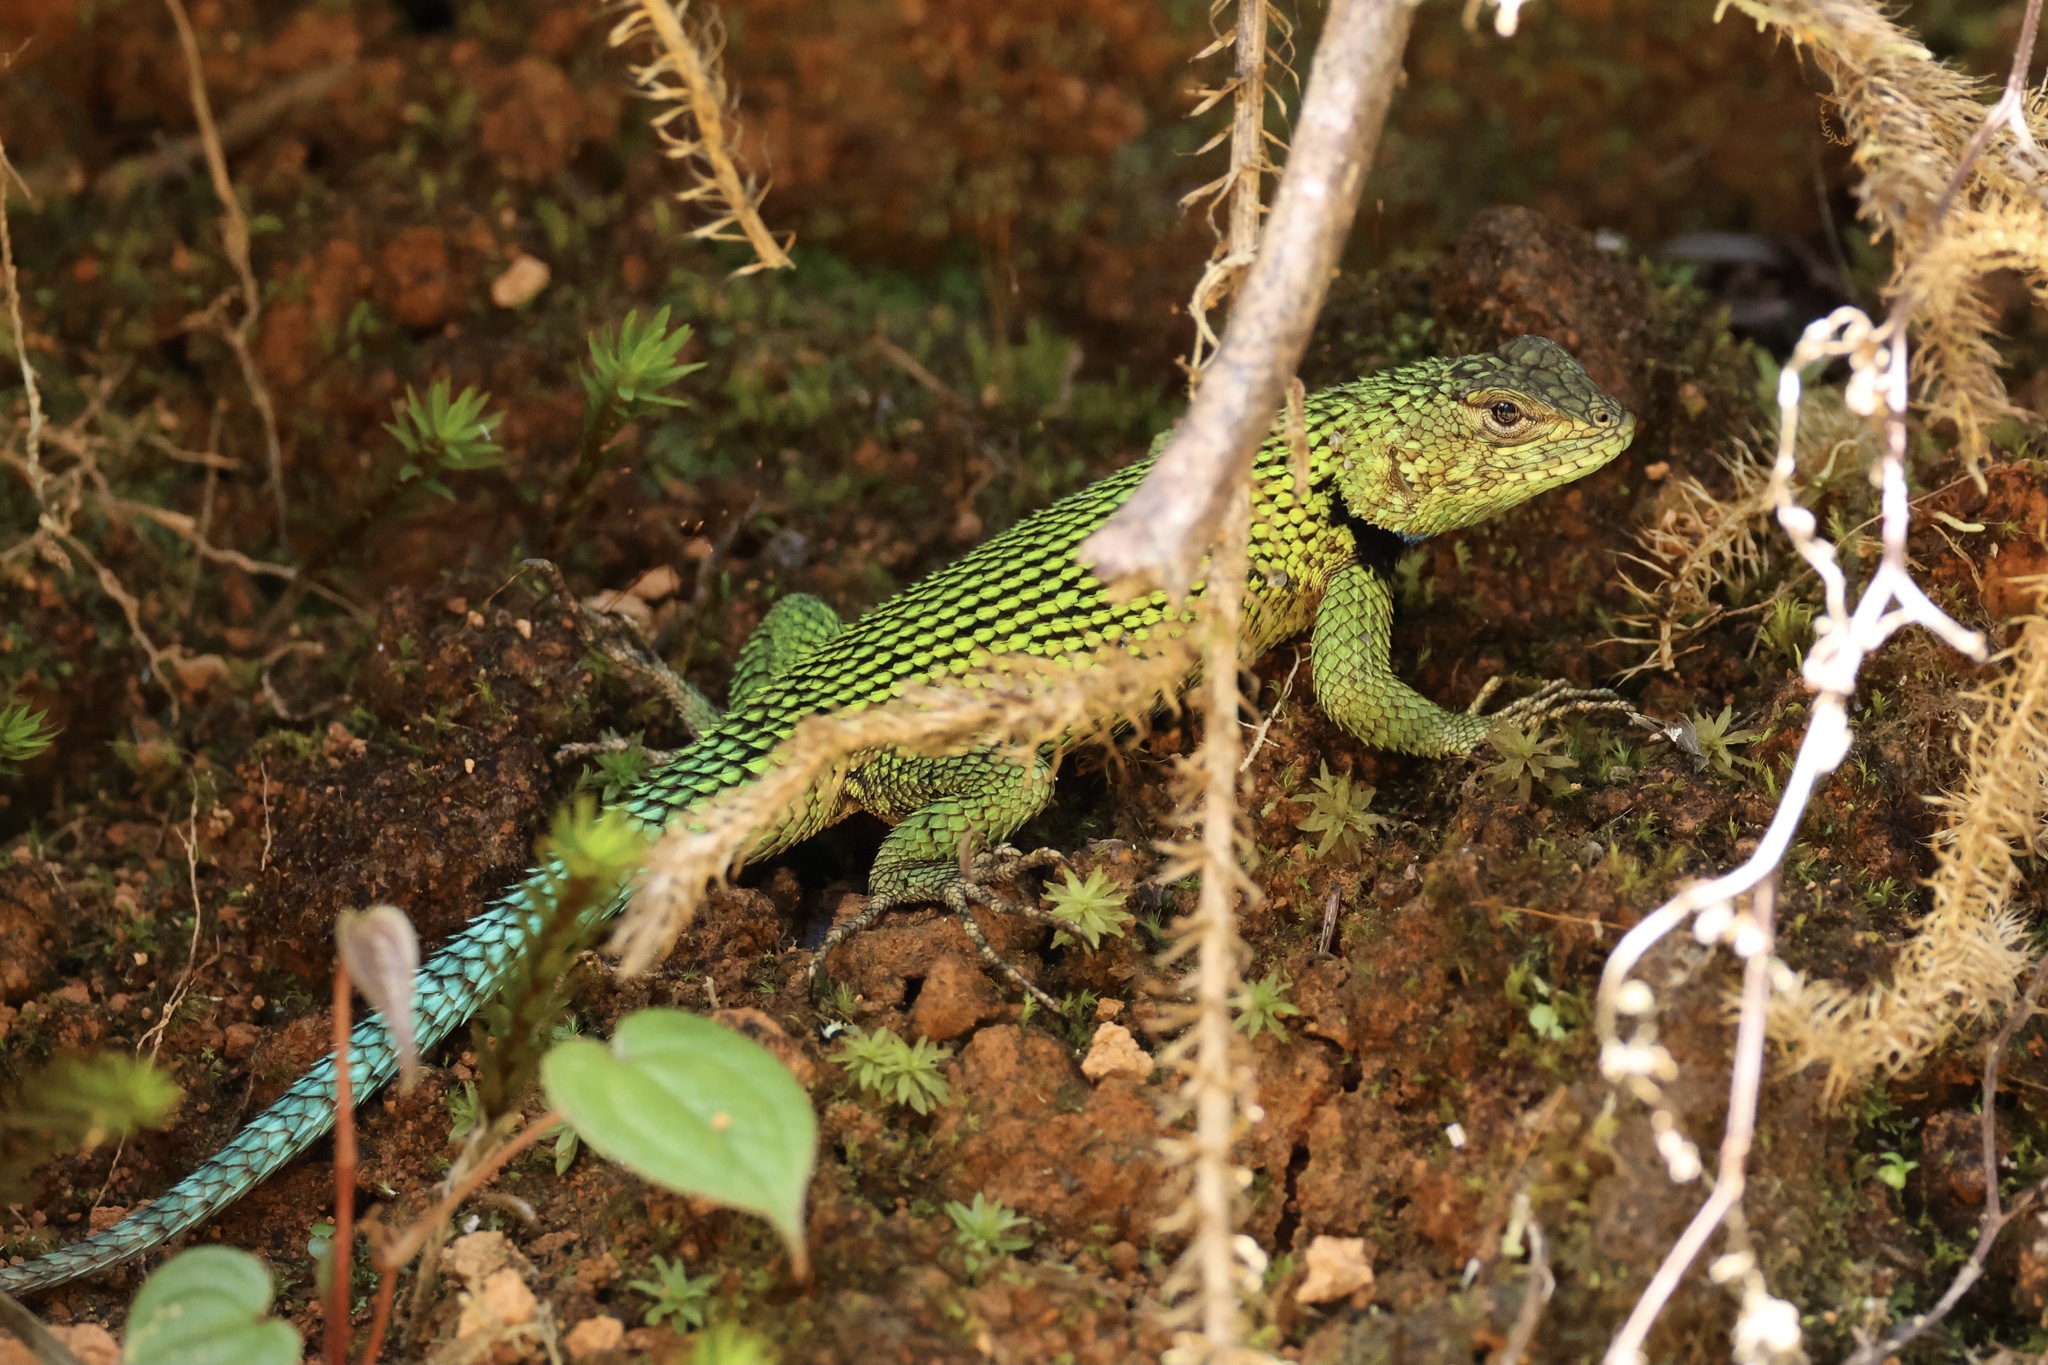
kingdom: Animalia
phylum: Chordata
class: Squamata
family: Phrynosomatidae
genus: Sceloporus
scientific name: Sceloporus malachiticus
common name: Green spiny lizard
